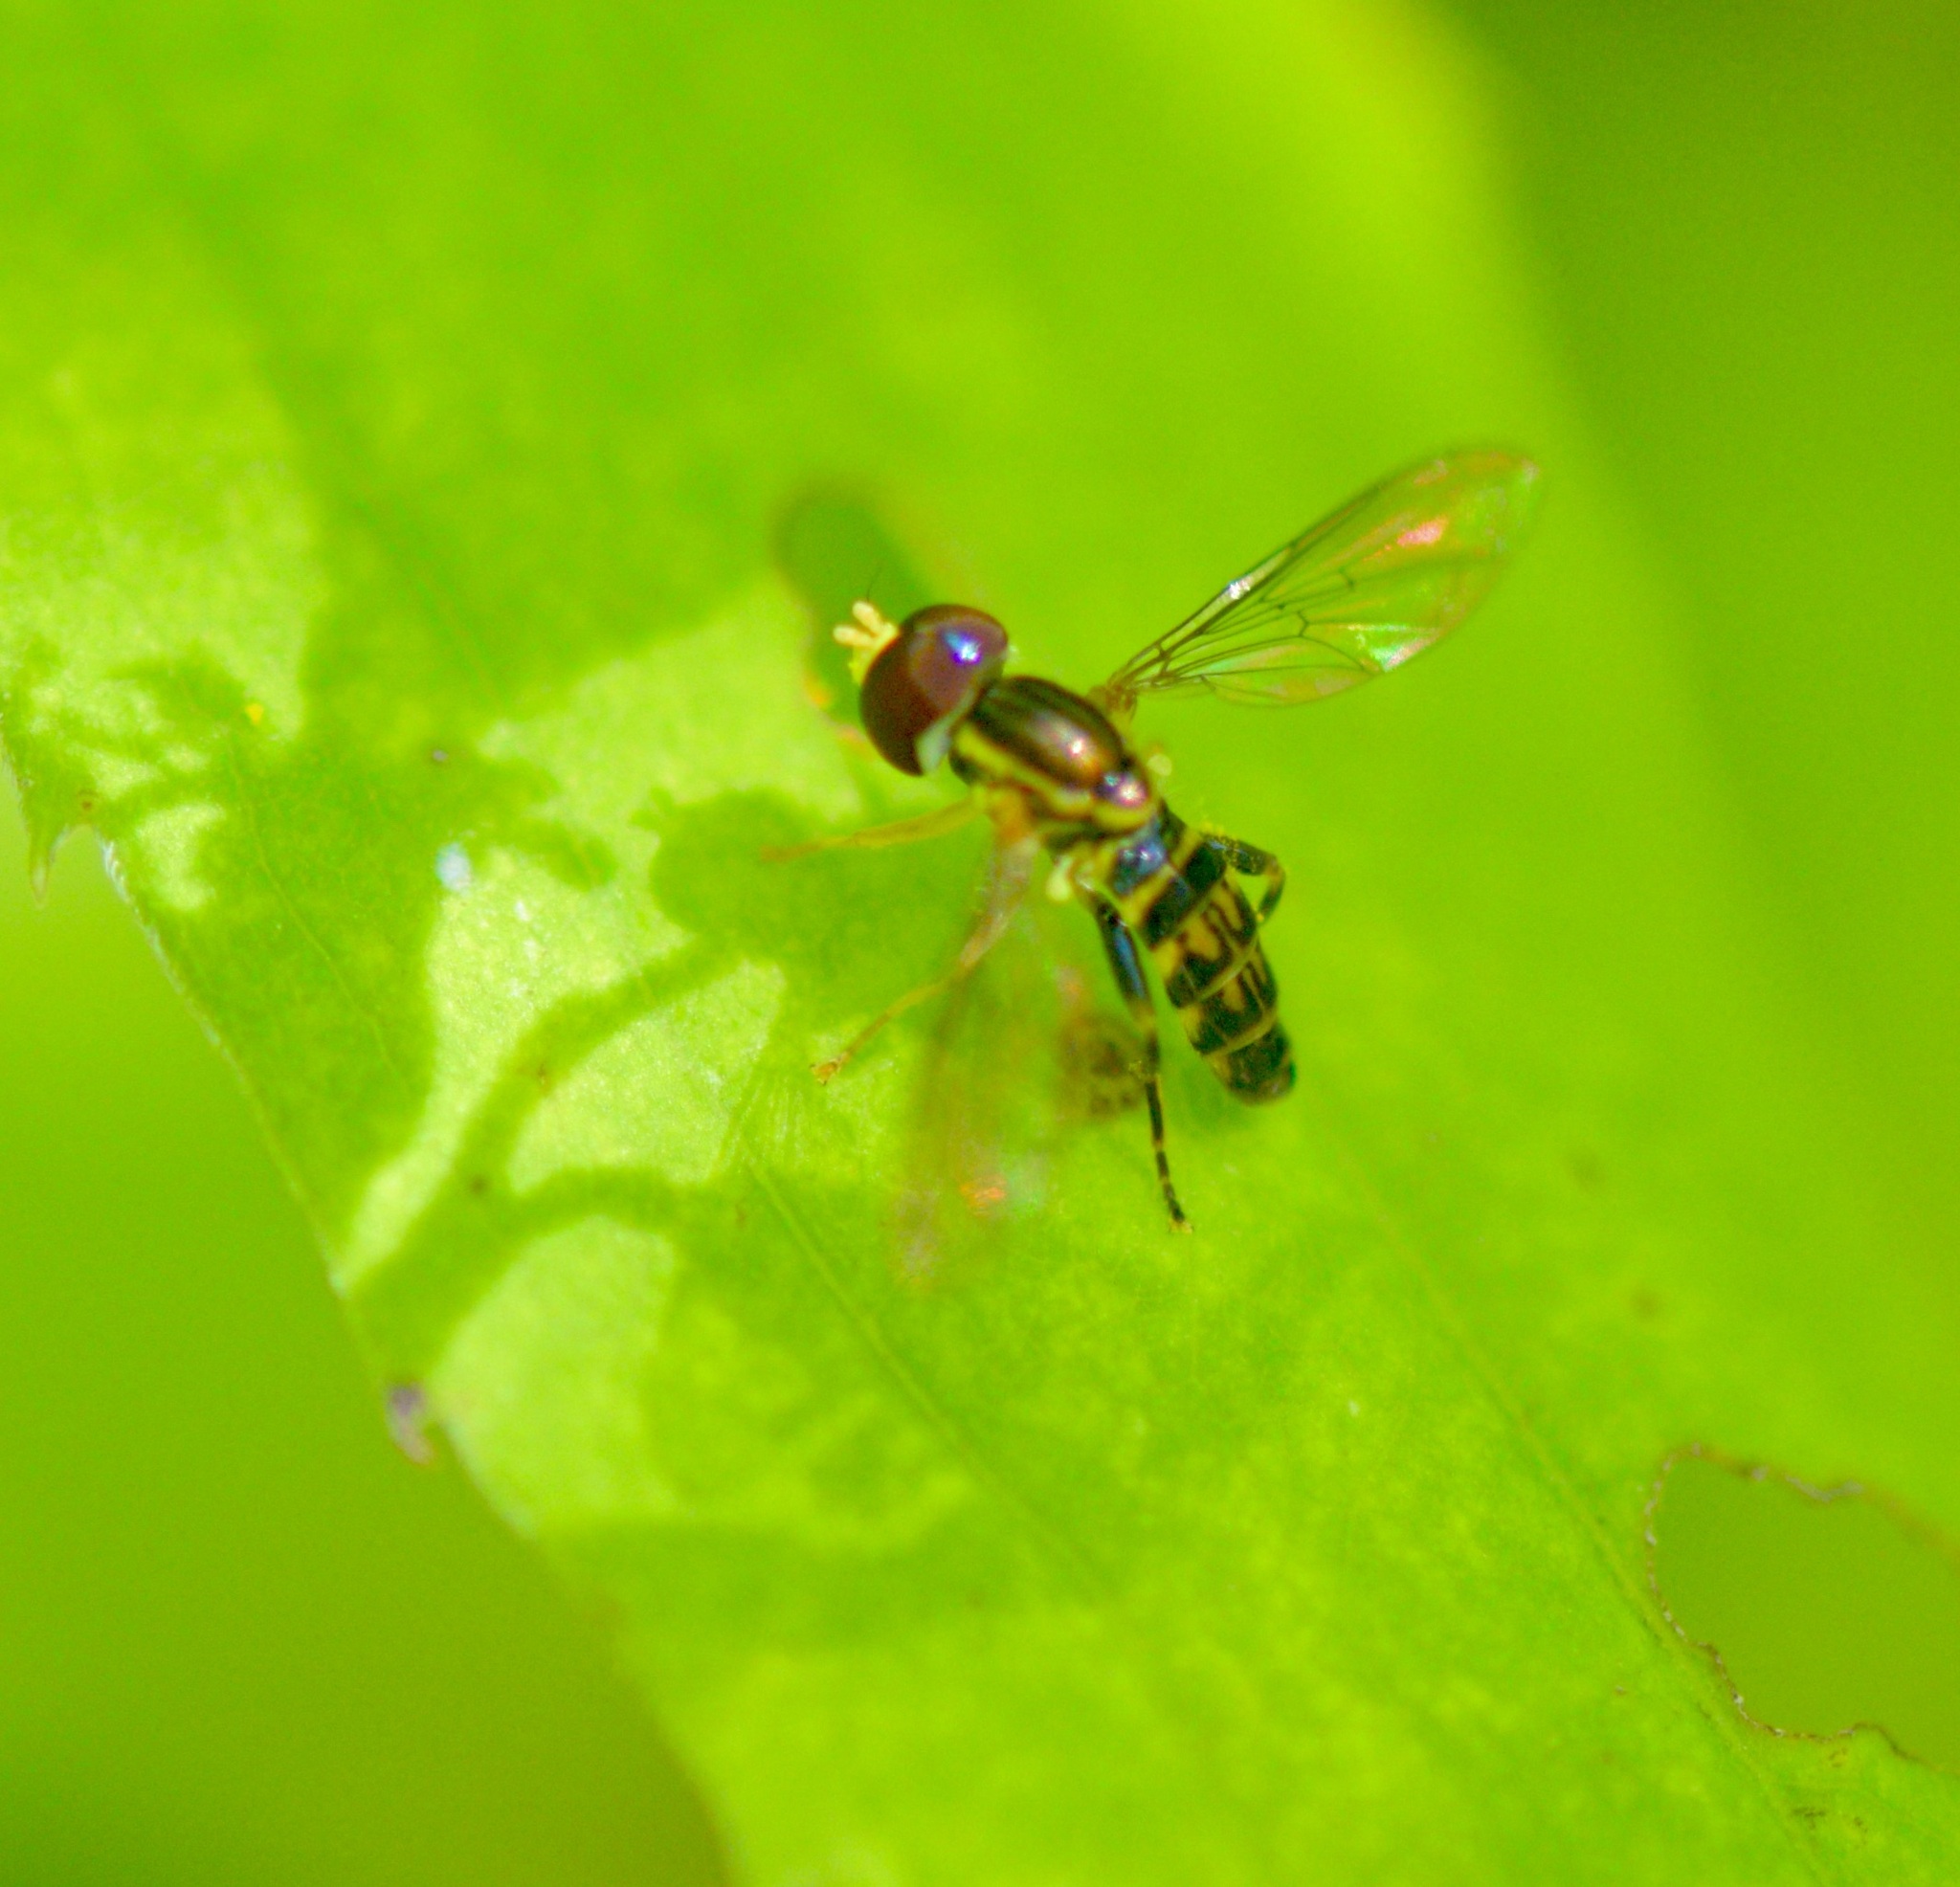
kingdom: Animalia
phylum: Arthropoda
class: Insecta
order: Diptera
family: Syrphidae
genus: Toxomerus
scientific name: Toxomerus geminatus
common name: Eastern calligrapher
